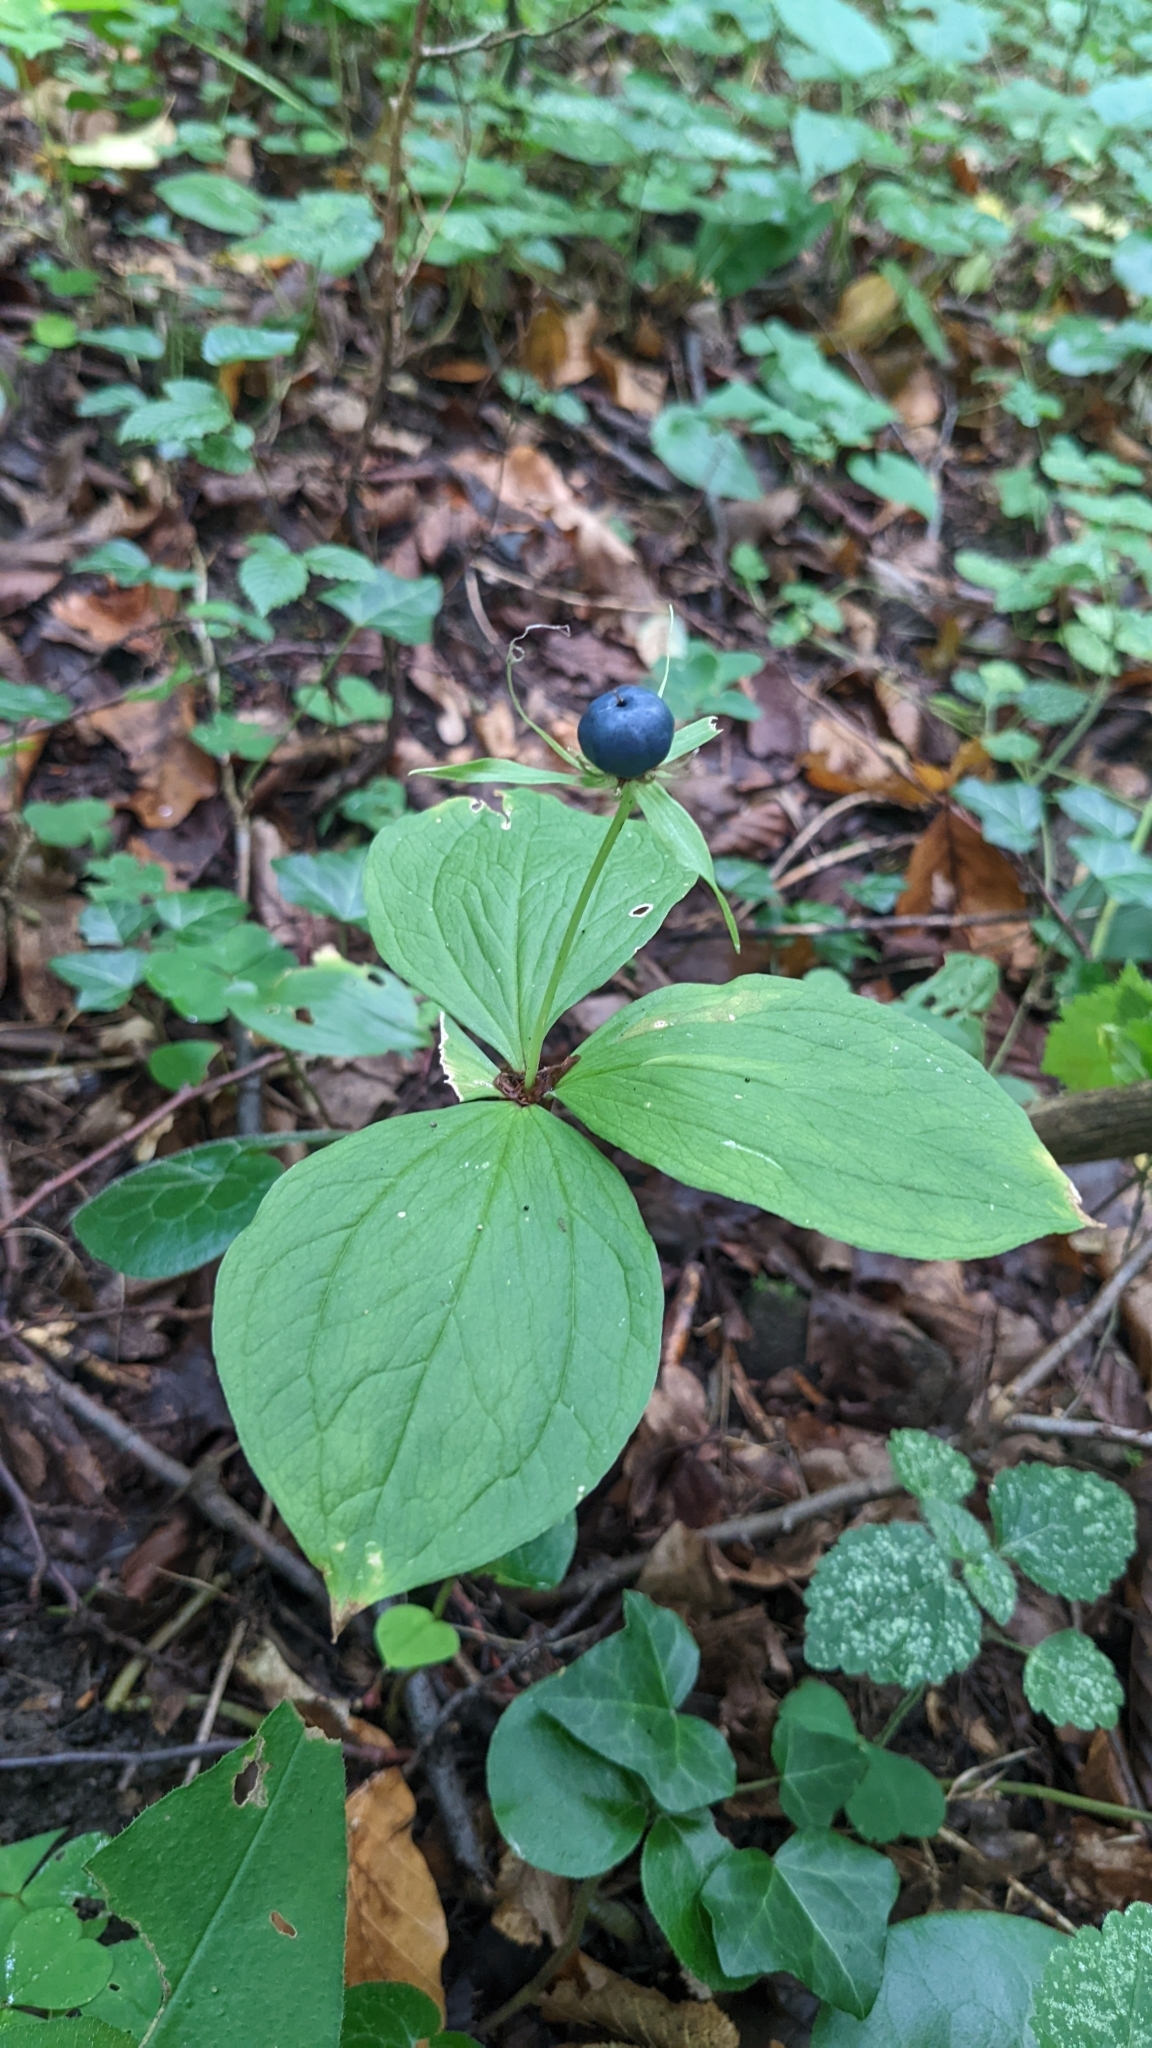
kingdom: Plantae
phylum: Tracheophyta
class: Liliopsida
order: Liliales
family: Melanthiaceae
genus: Paris
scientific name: Paris quadrifolia
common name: Herb-paris
